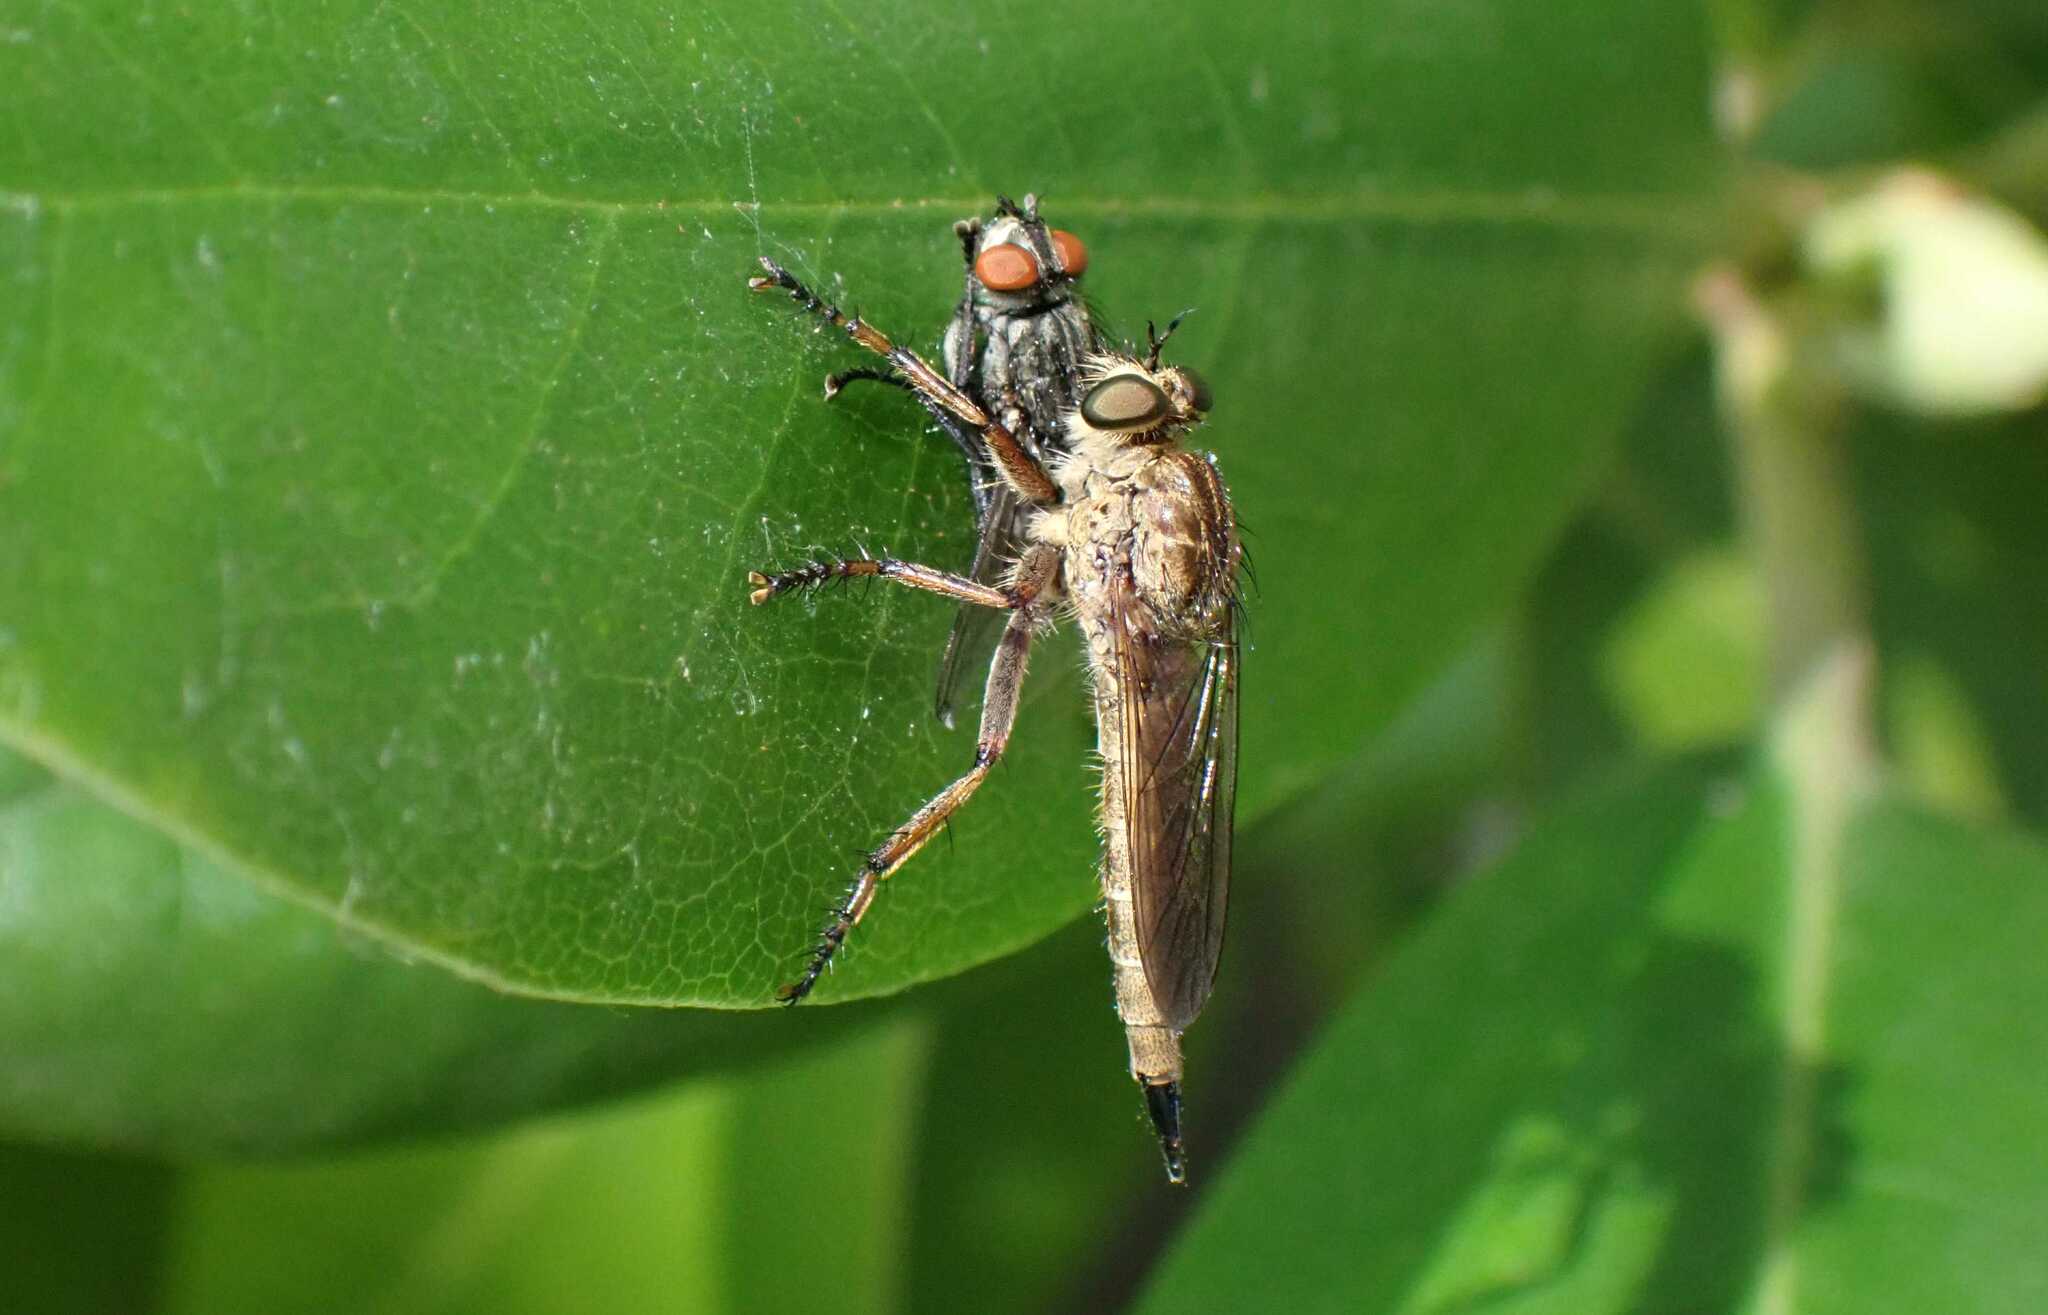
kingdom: Animalia
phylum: Arthropoda
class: Insecta
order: Diptera
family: Asilidae
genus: Epitriptus
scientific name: Epitriptus cingulatus
